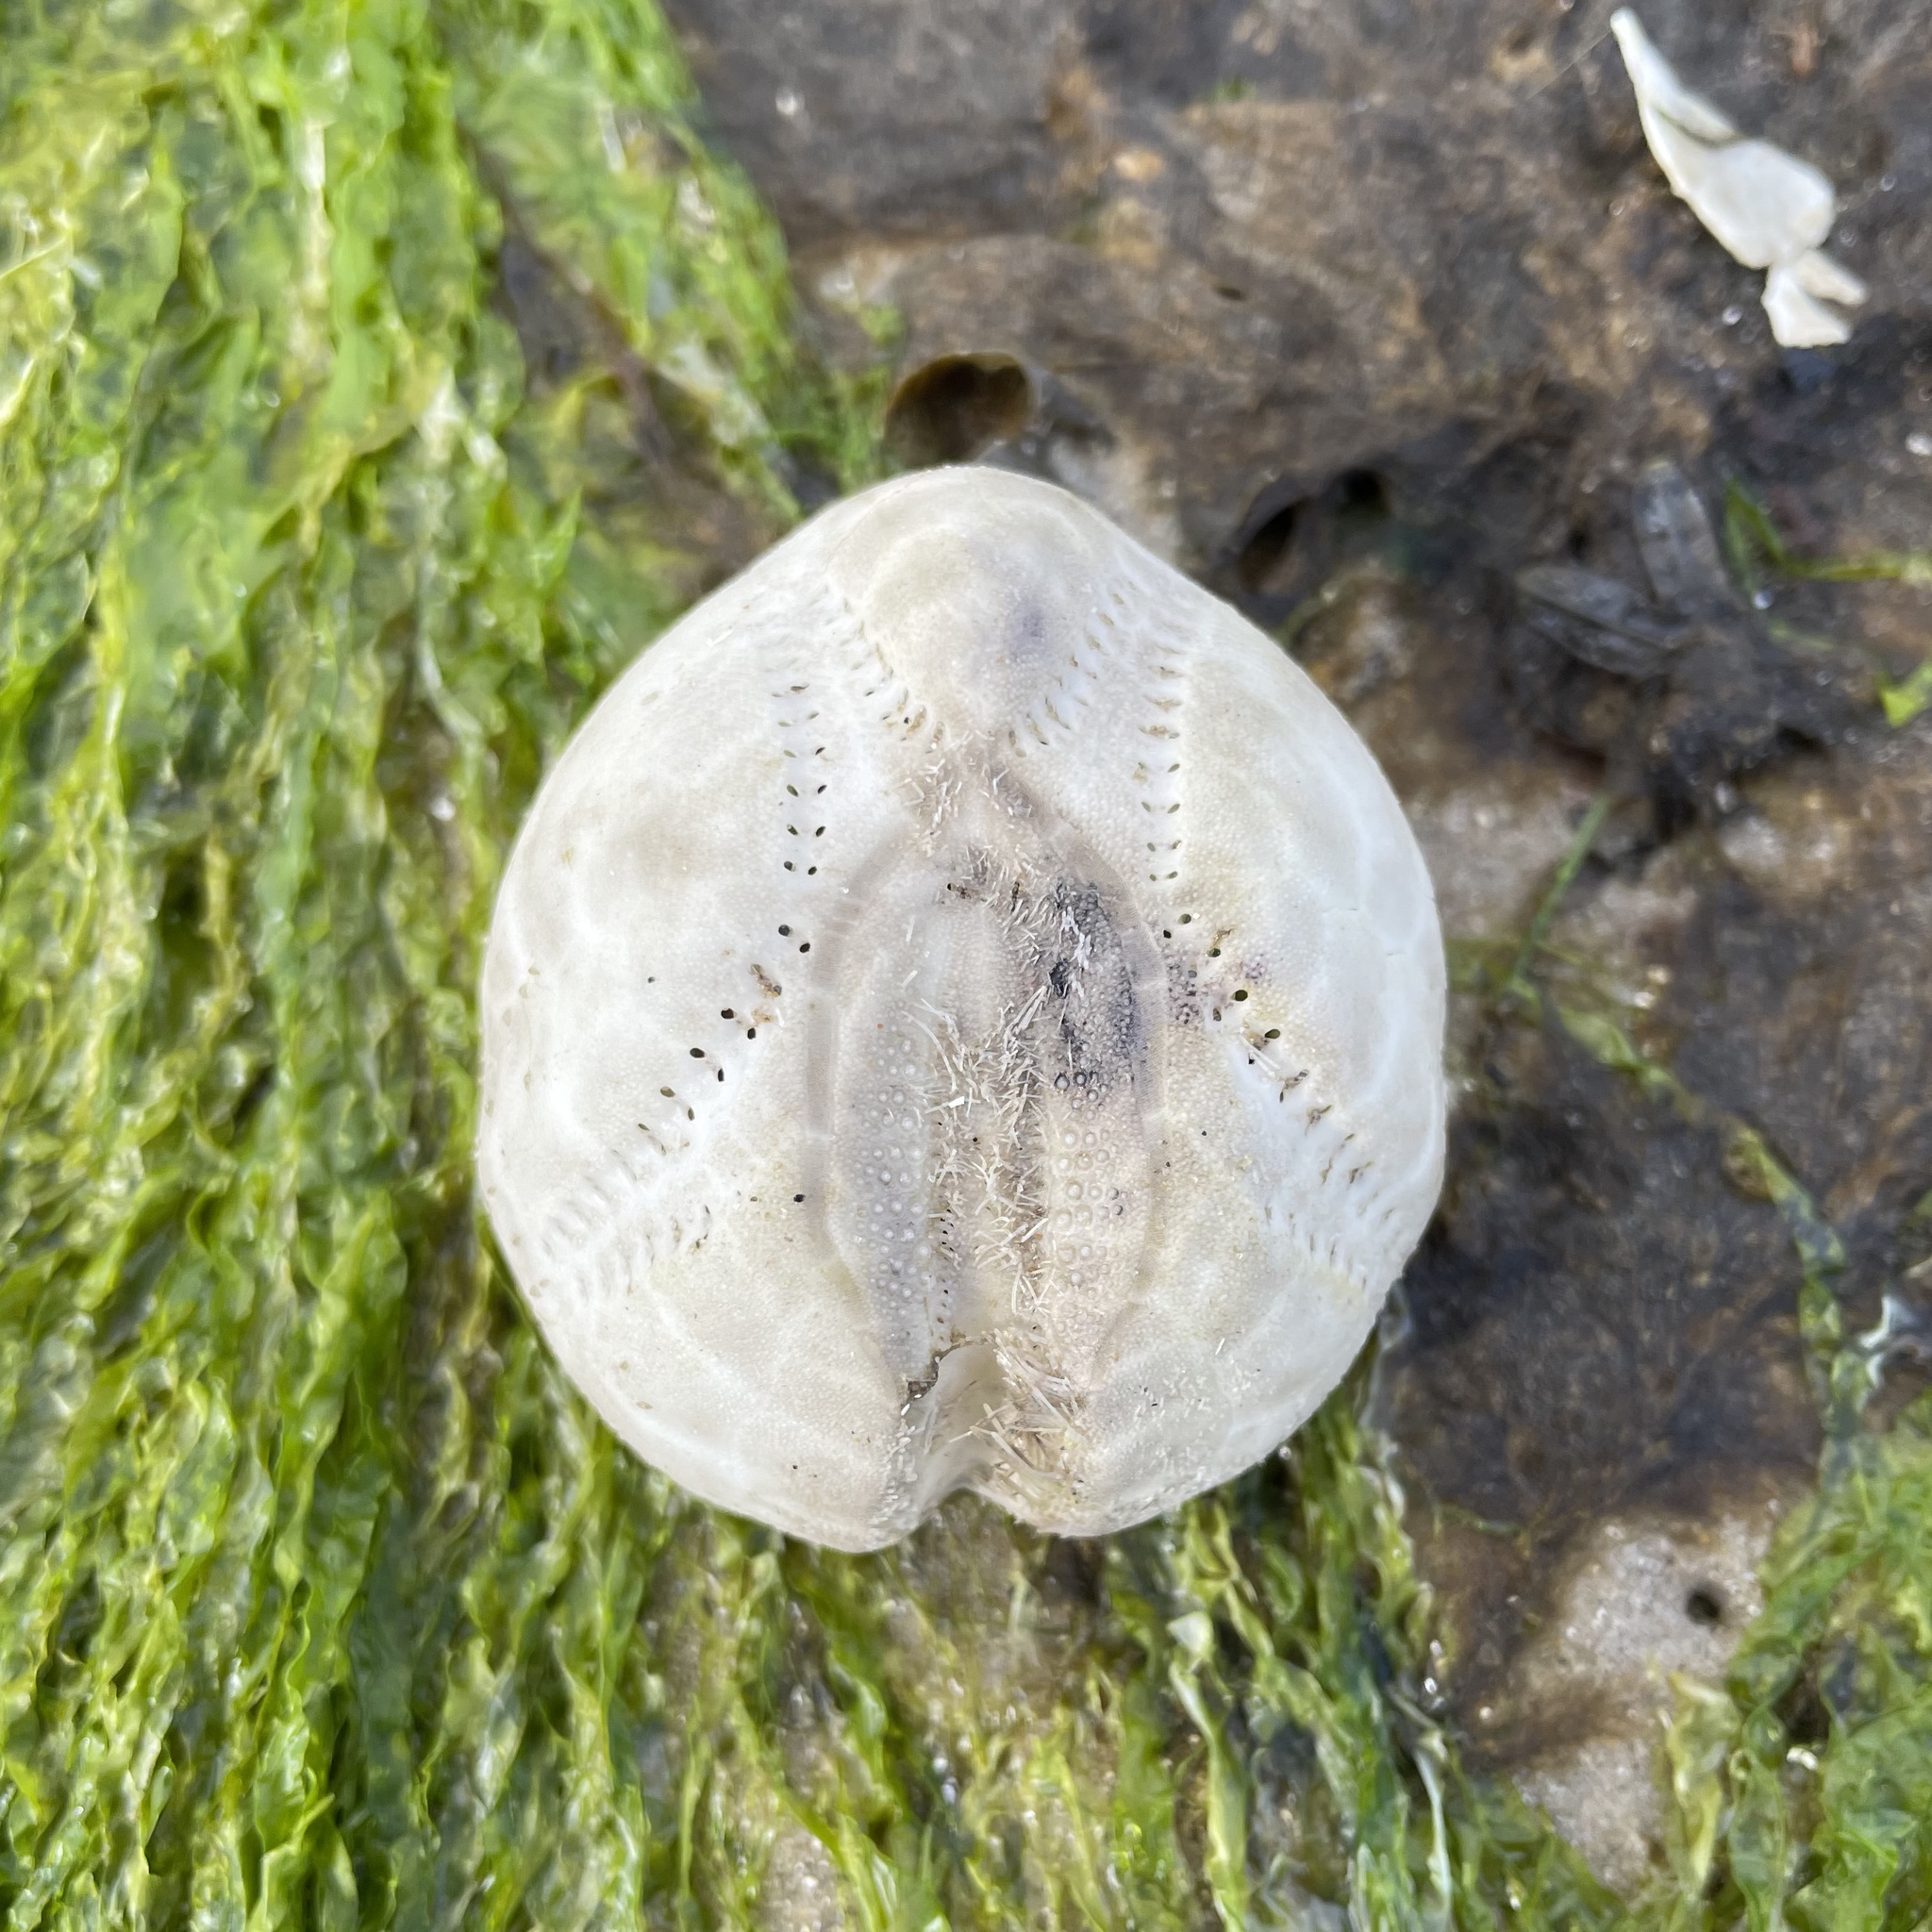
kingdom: Animalia
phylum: Echinodermata
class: Echinoidea
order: Spatangoida
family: Loveniidae
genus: Echinocardium
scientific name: Echinocardium cordatum
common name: Heart-urchin
